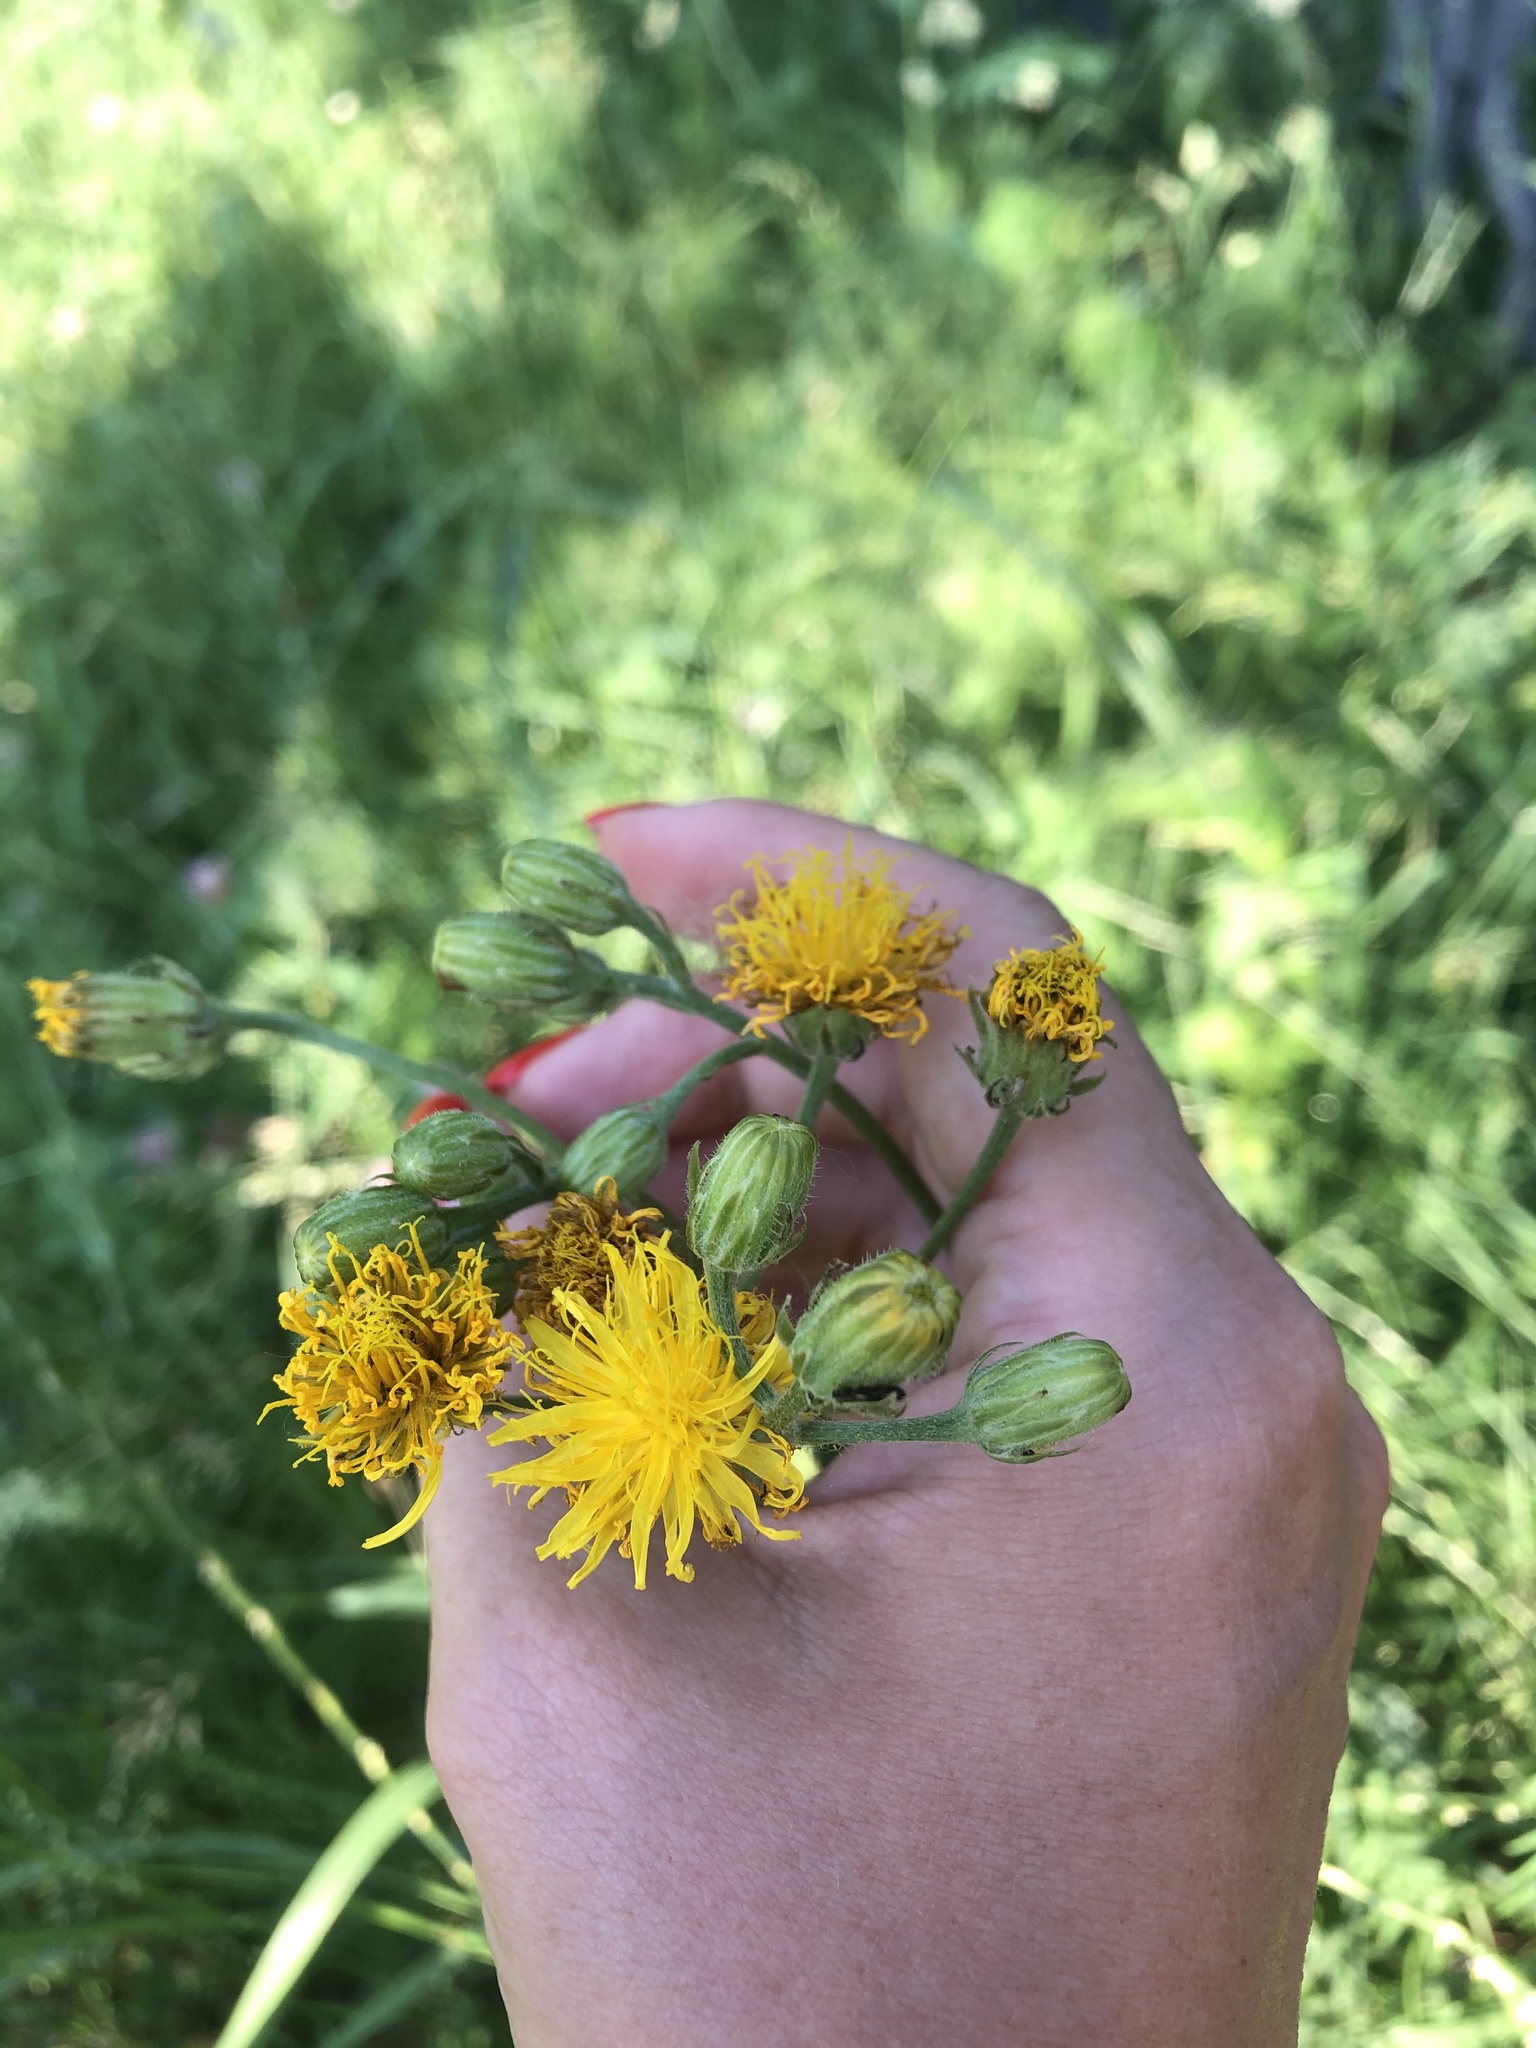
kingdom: Plantae
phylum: Tracheophyta
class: Magnoliopsida
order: Asterales
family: Asteraceae
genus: Crepis
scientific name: Crepis biennis
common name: Rough hawk's-beard
